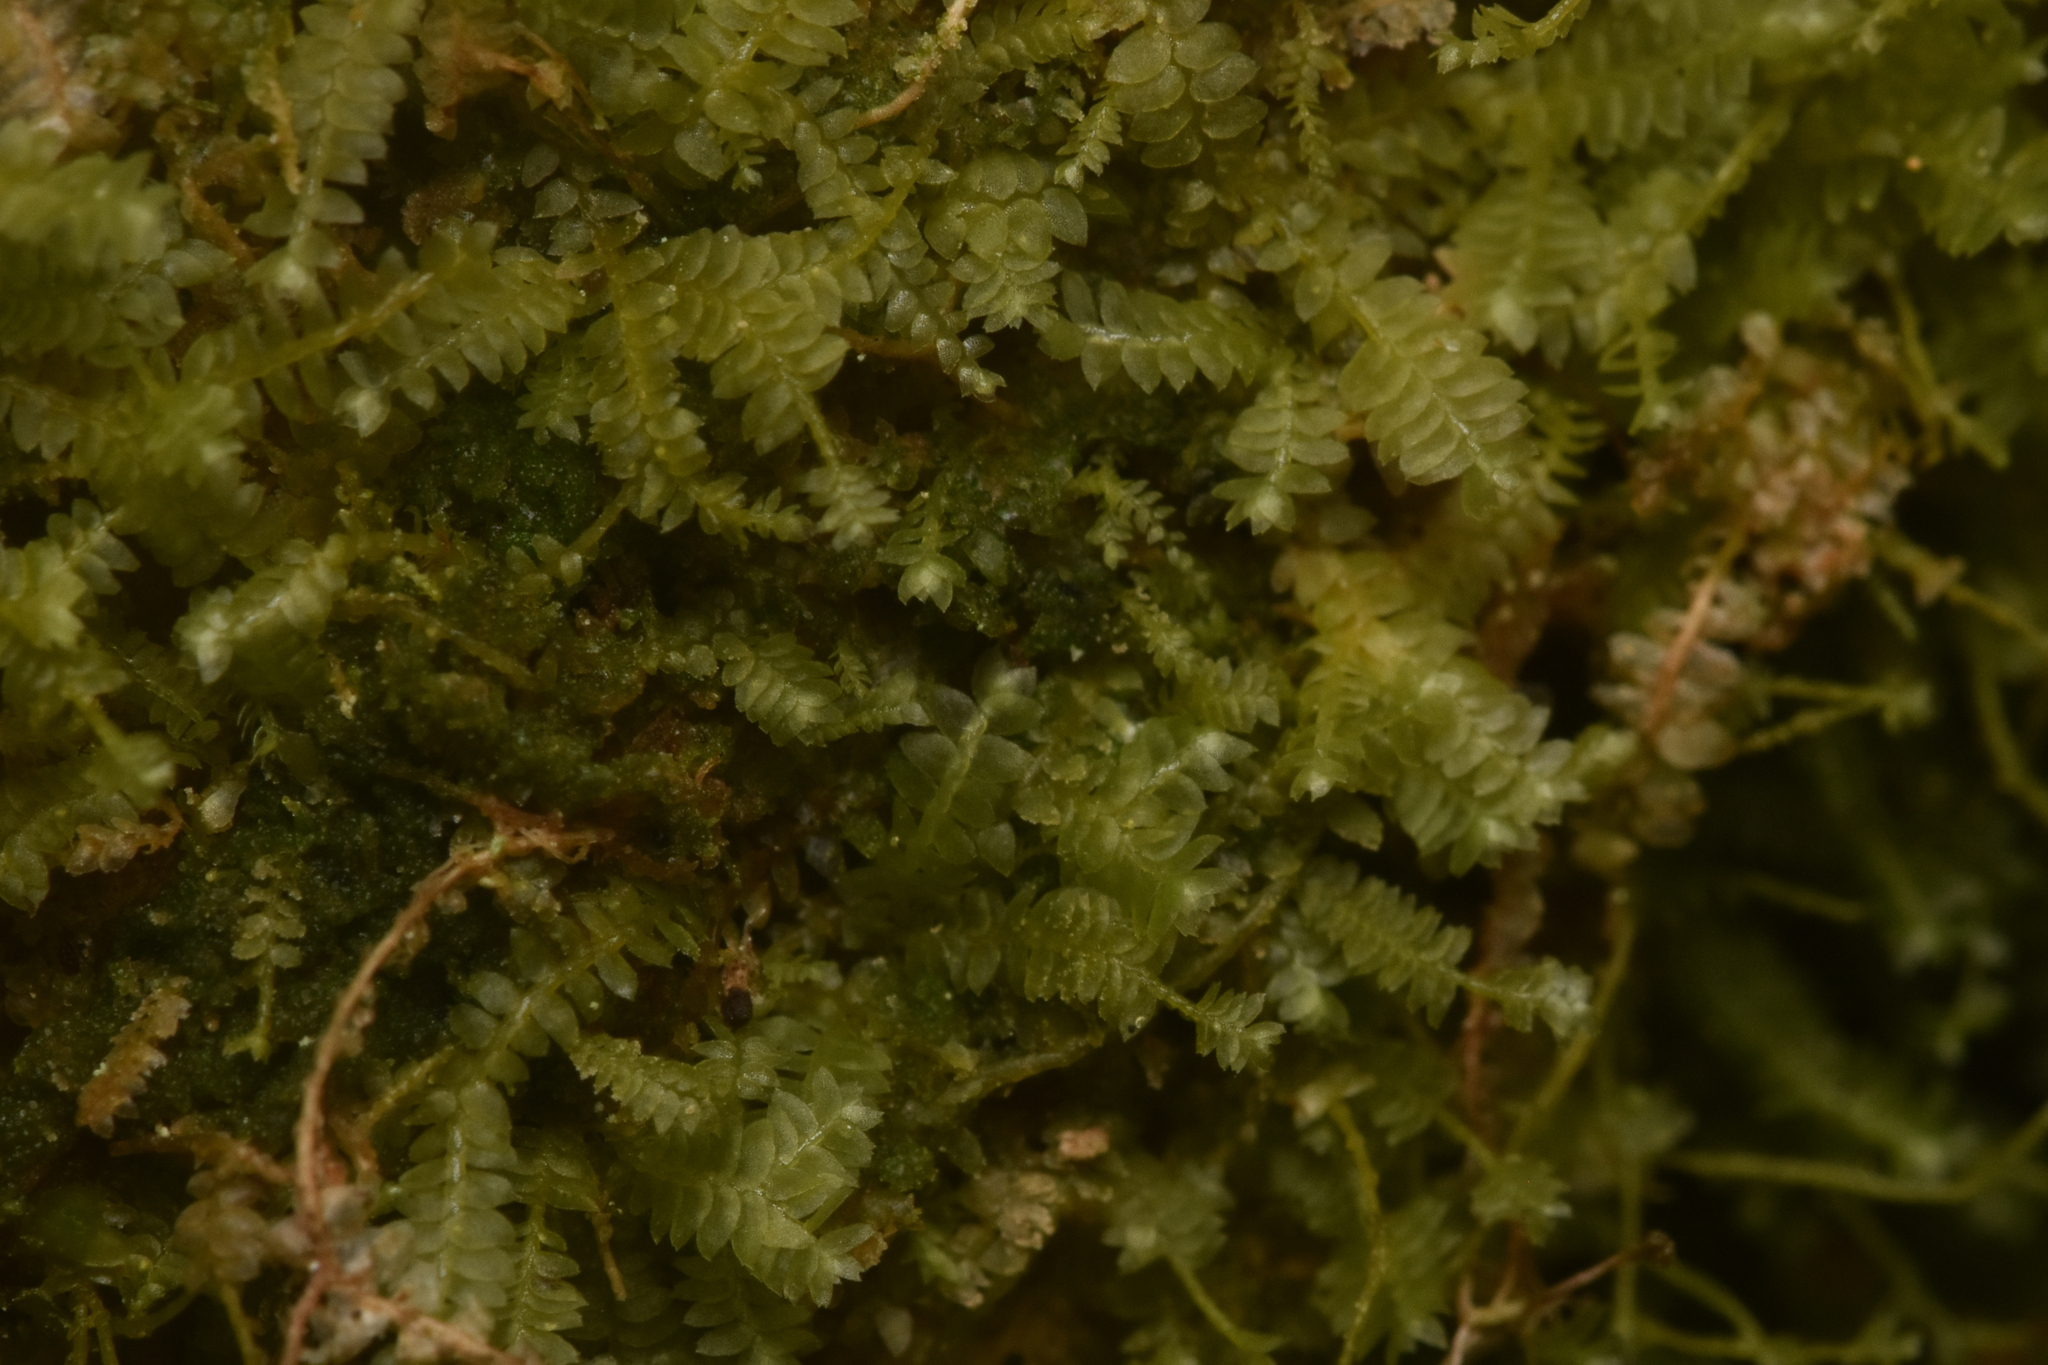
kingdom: Plantae
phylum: Marchantiophyta
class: Jungermanniopsida
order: Jungermanniales
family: Lepidoziaceae
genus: Bazzania
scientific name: Bazzania denudata
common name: Naked whipwort
